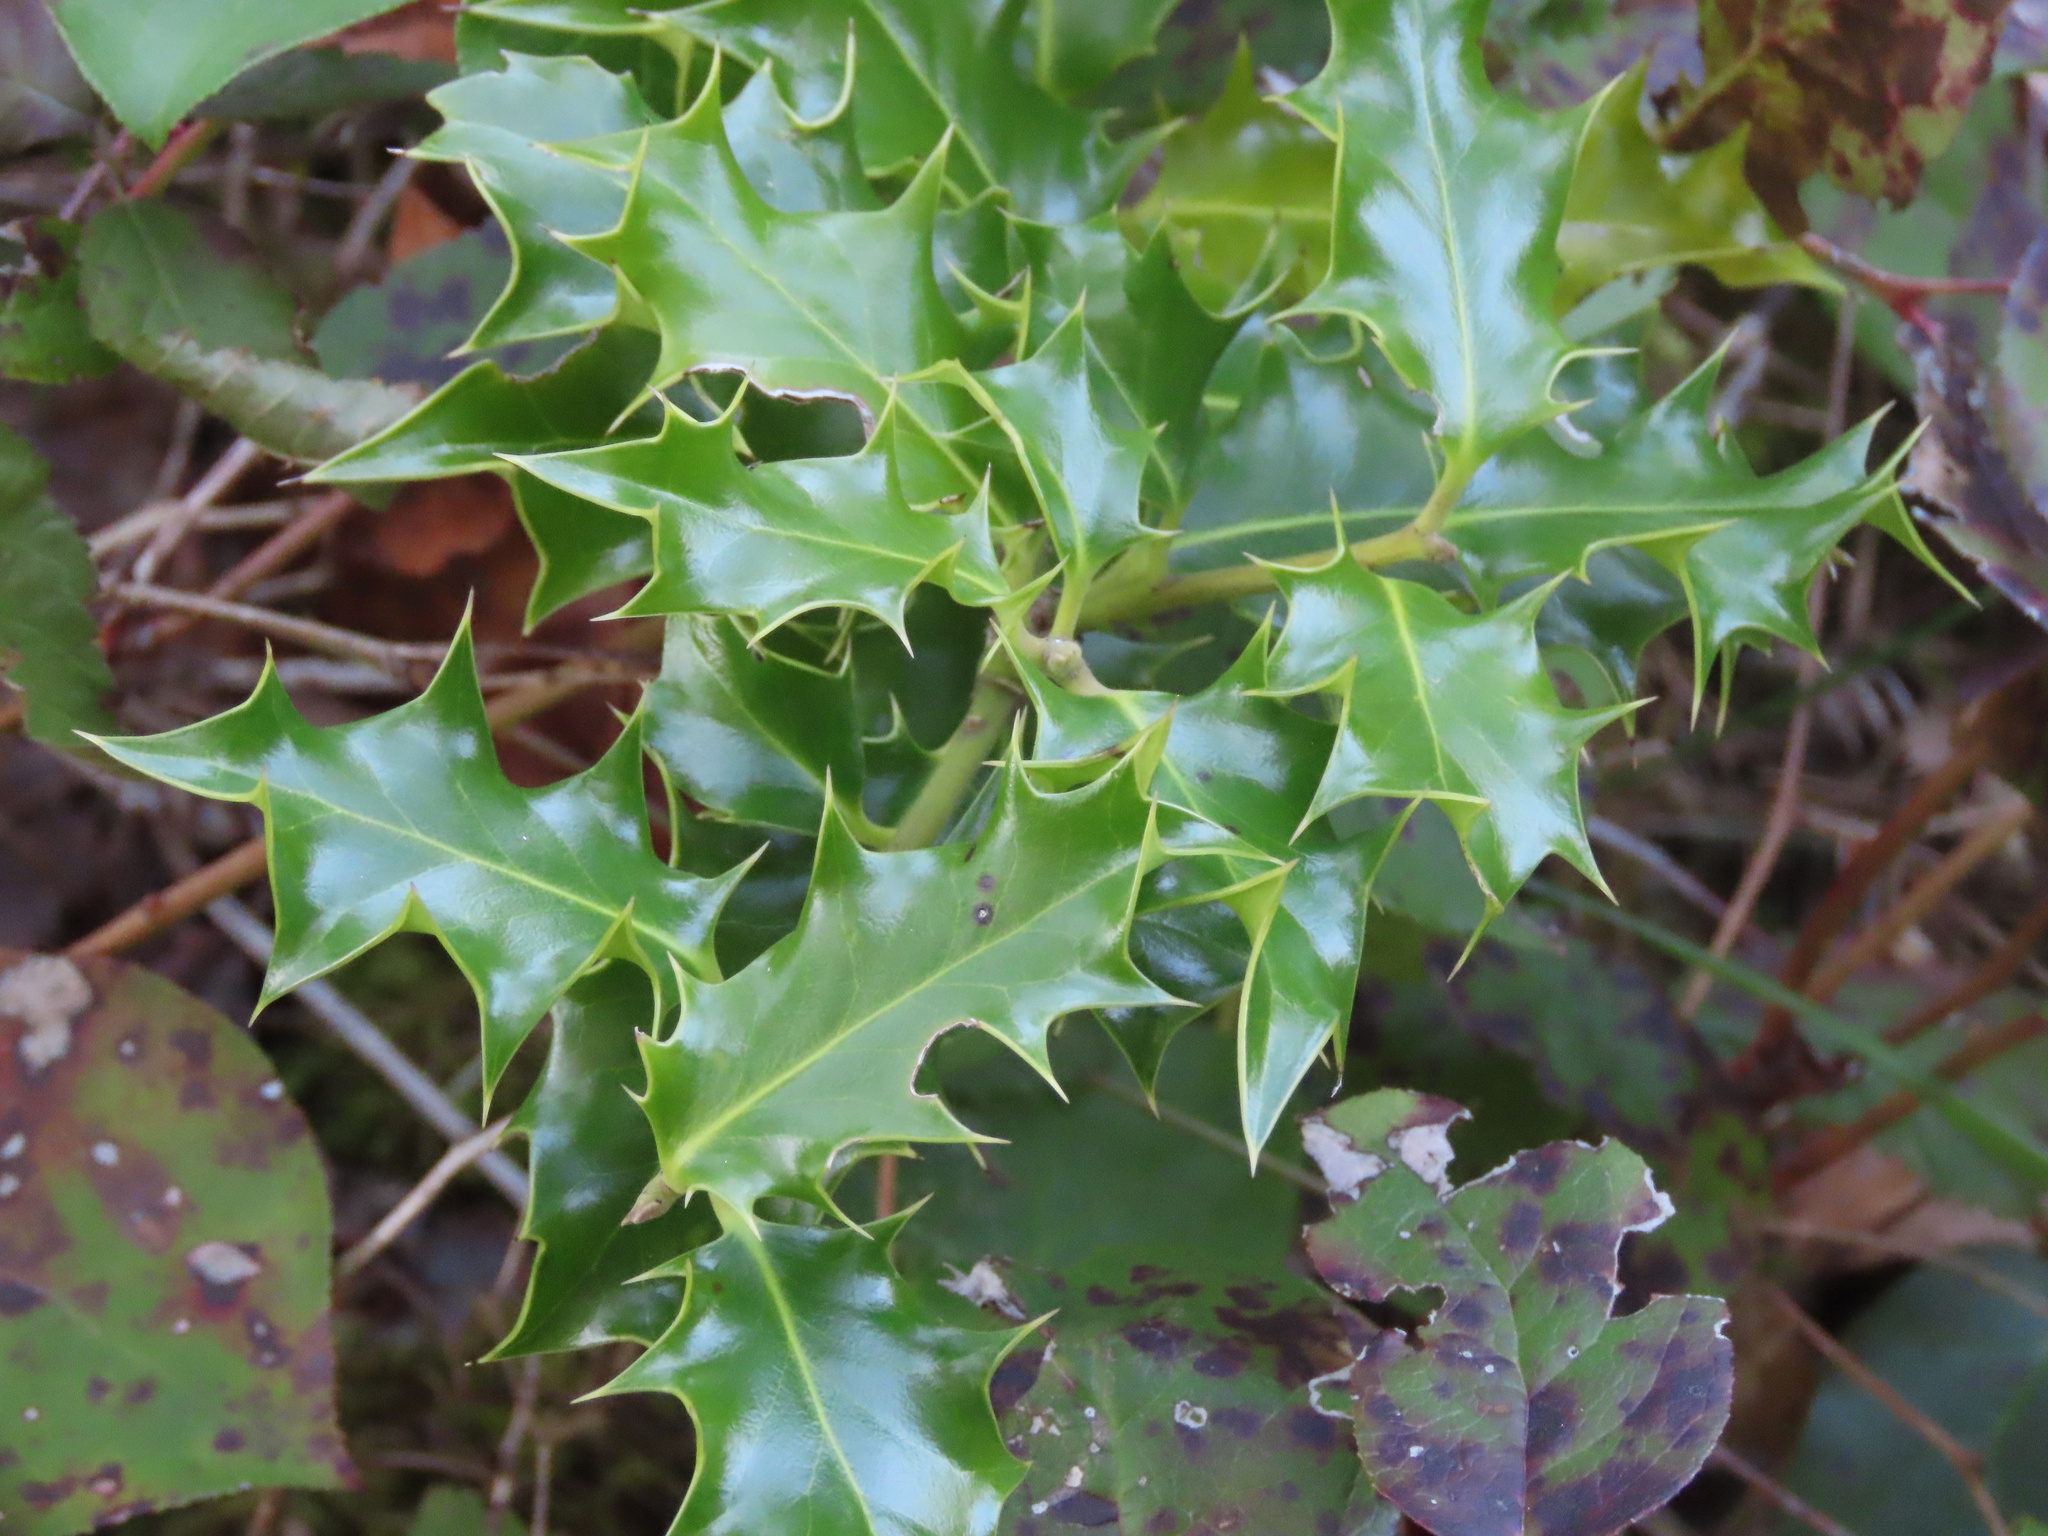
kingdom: Plantae
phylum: Tracheophyta
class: Magnoliopsida
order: Aquifoliales
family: Aquifoliaceae
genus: Ilex
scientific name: Ilex aquifolium
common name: English holly
